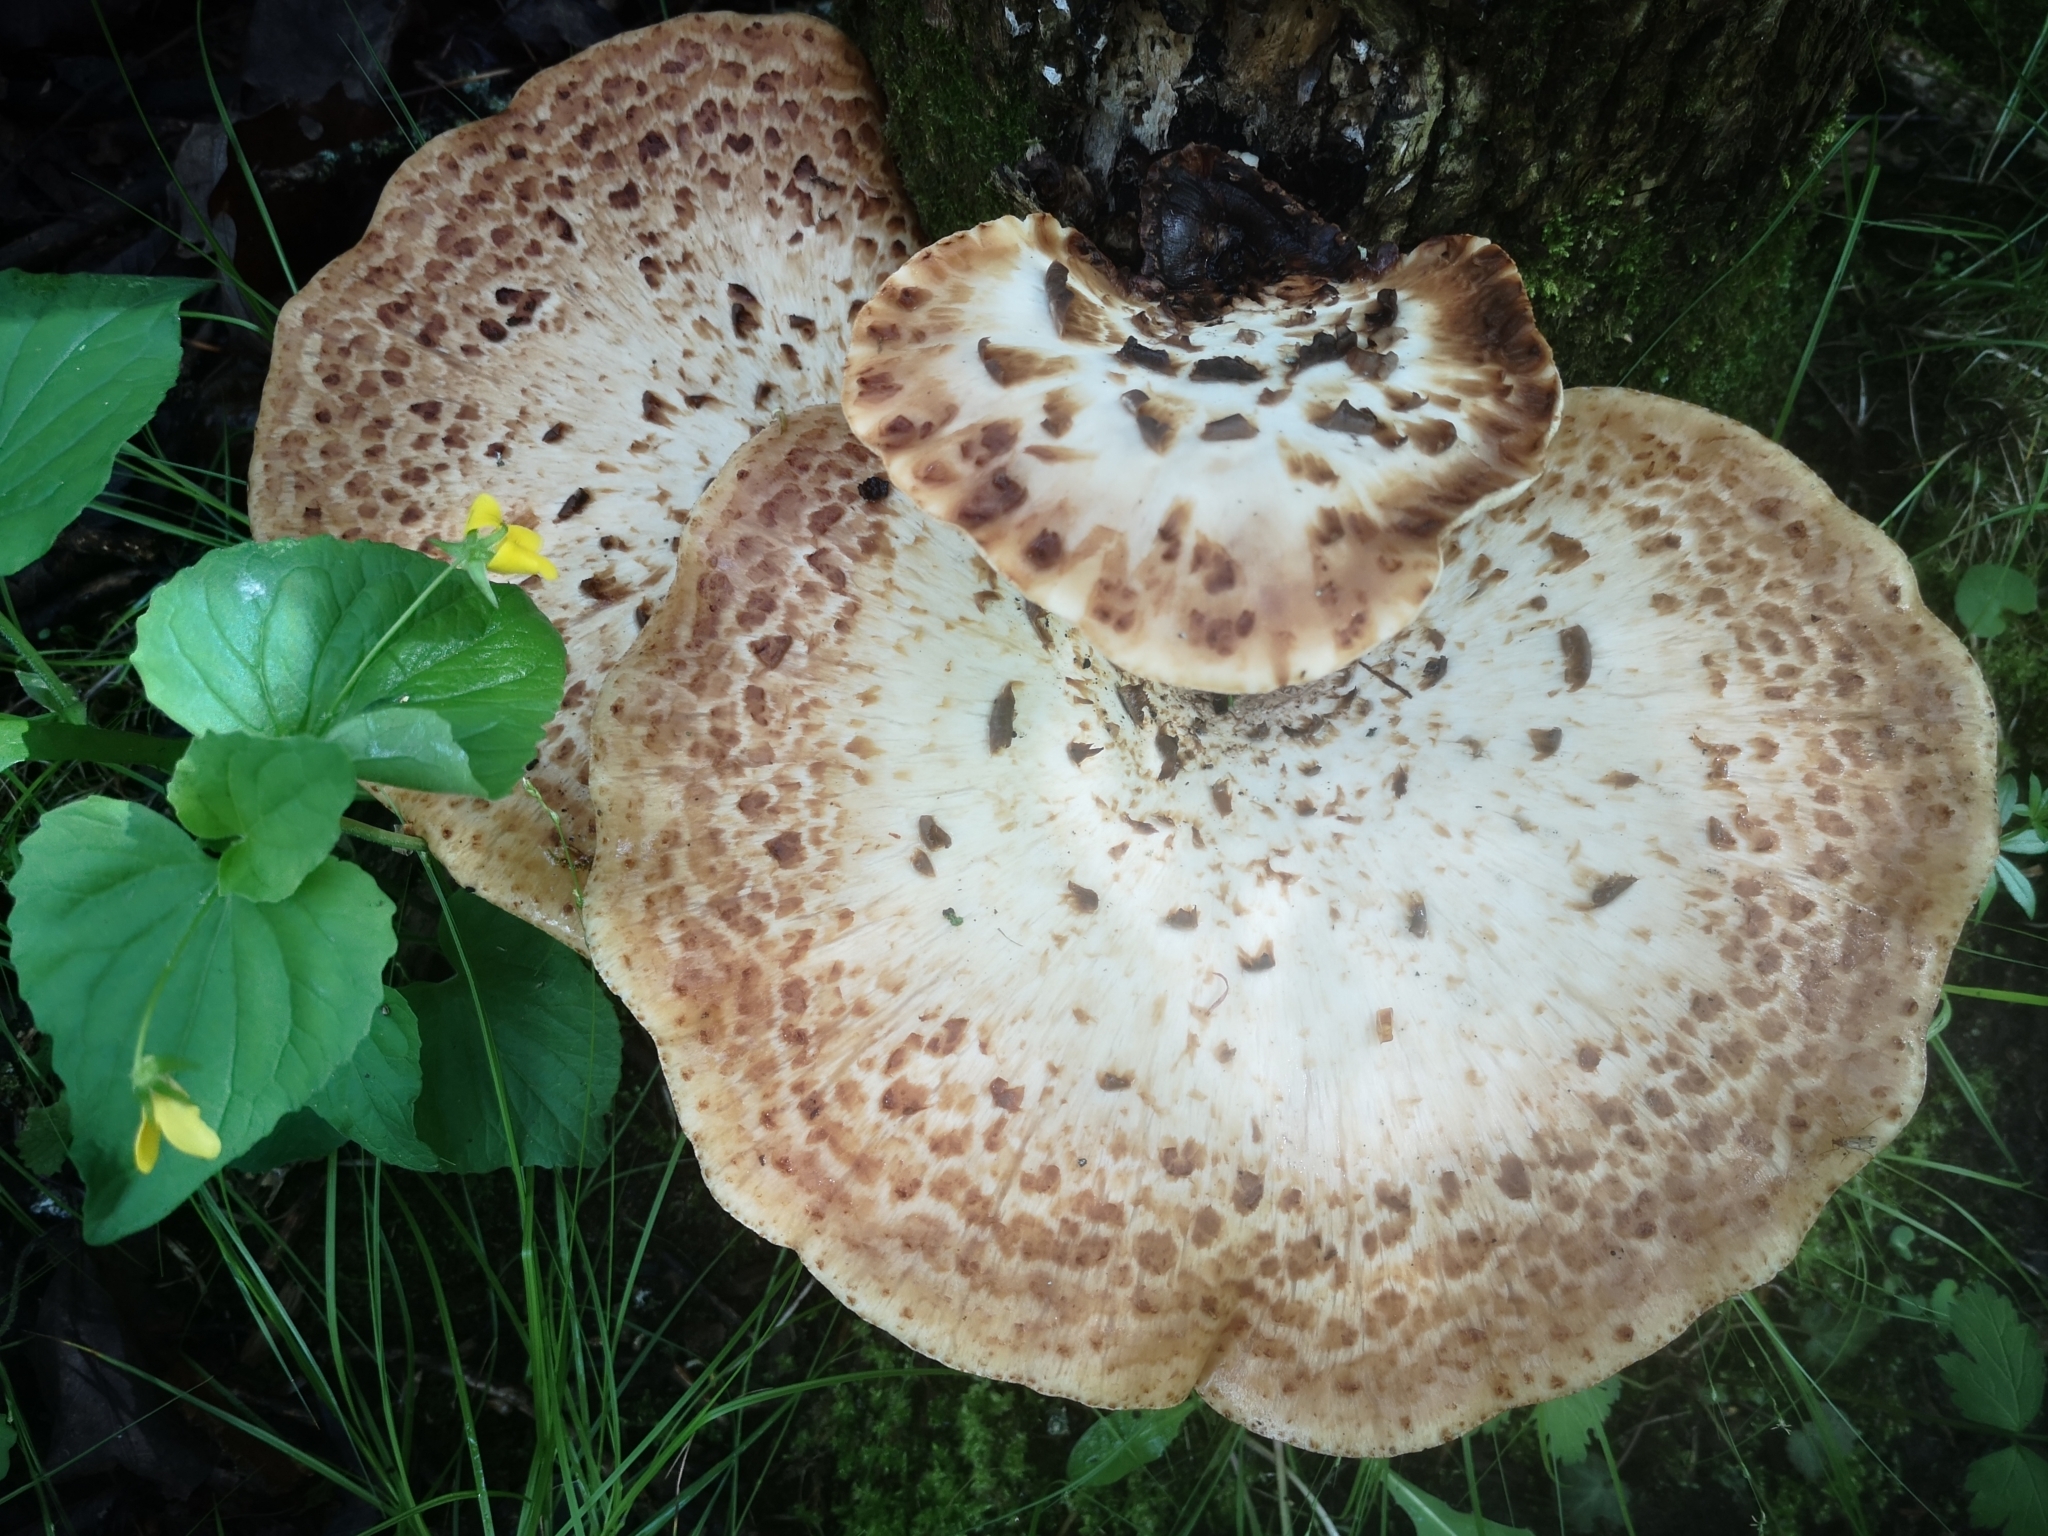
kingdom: Fungi
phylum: Basidiomycota
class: Agaricomycetes
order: Polyporales
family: Polyporaceae
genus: Cerioporus
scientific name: Cerioporus squamosus
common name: Dryad's saddle
